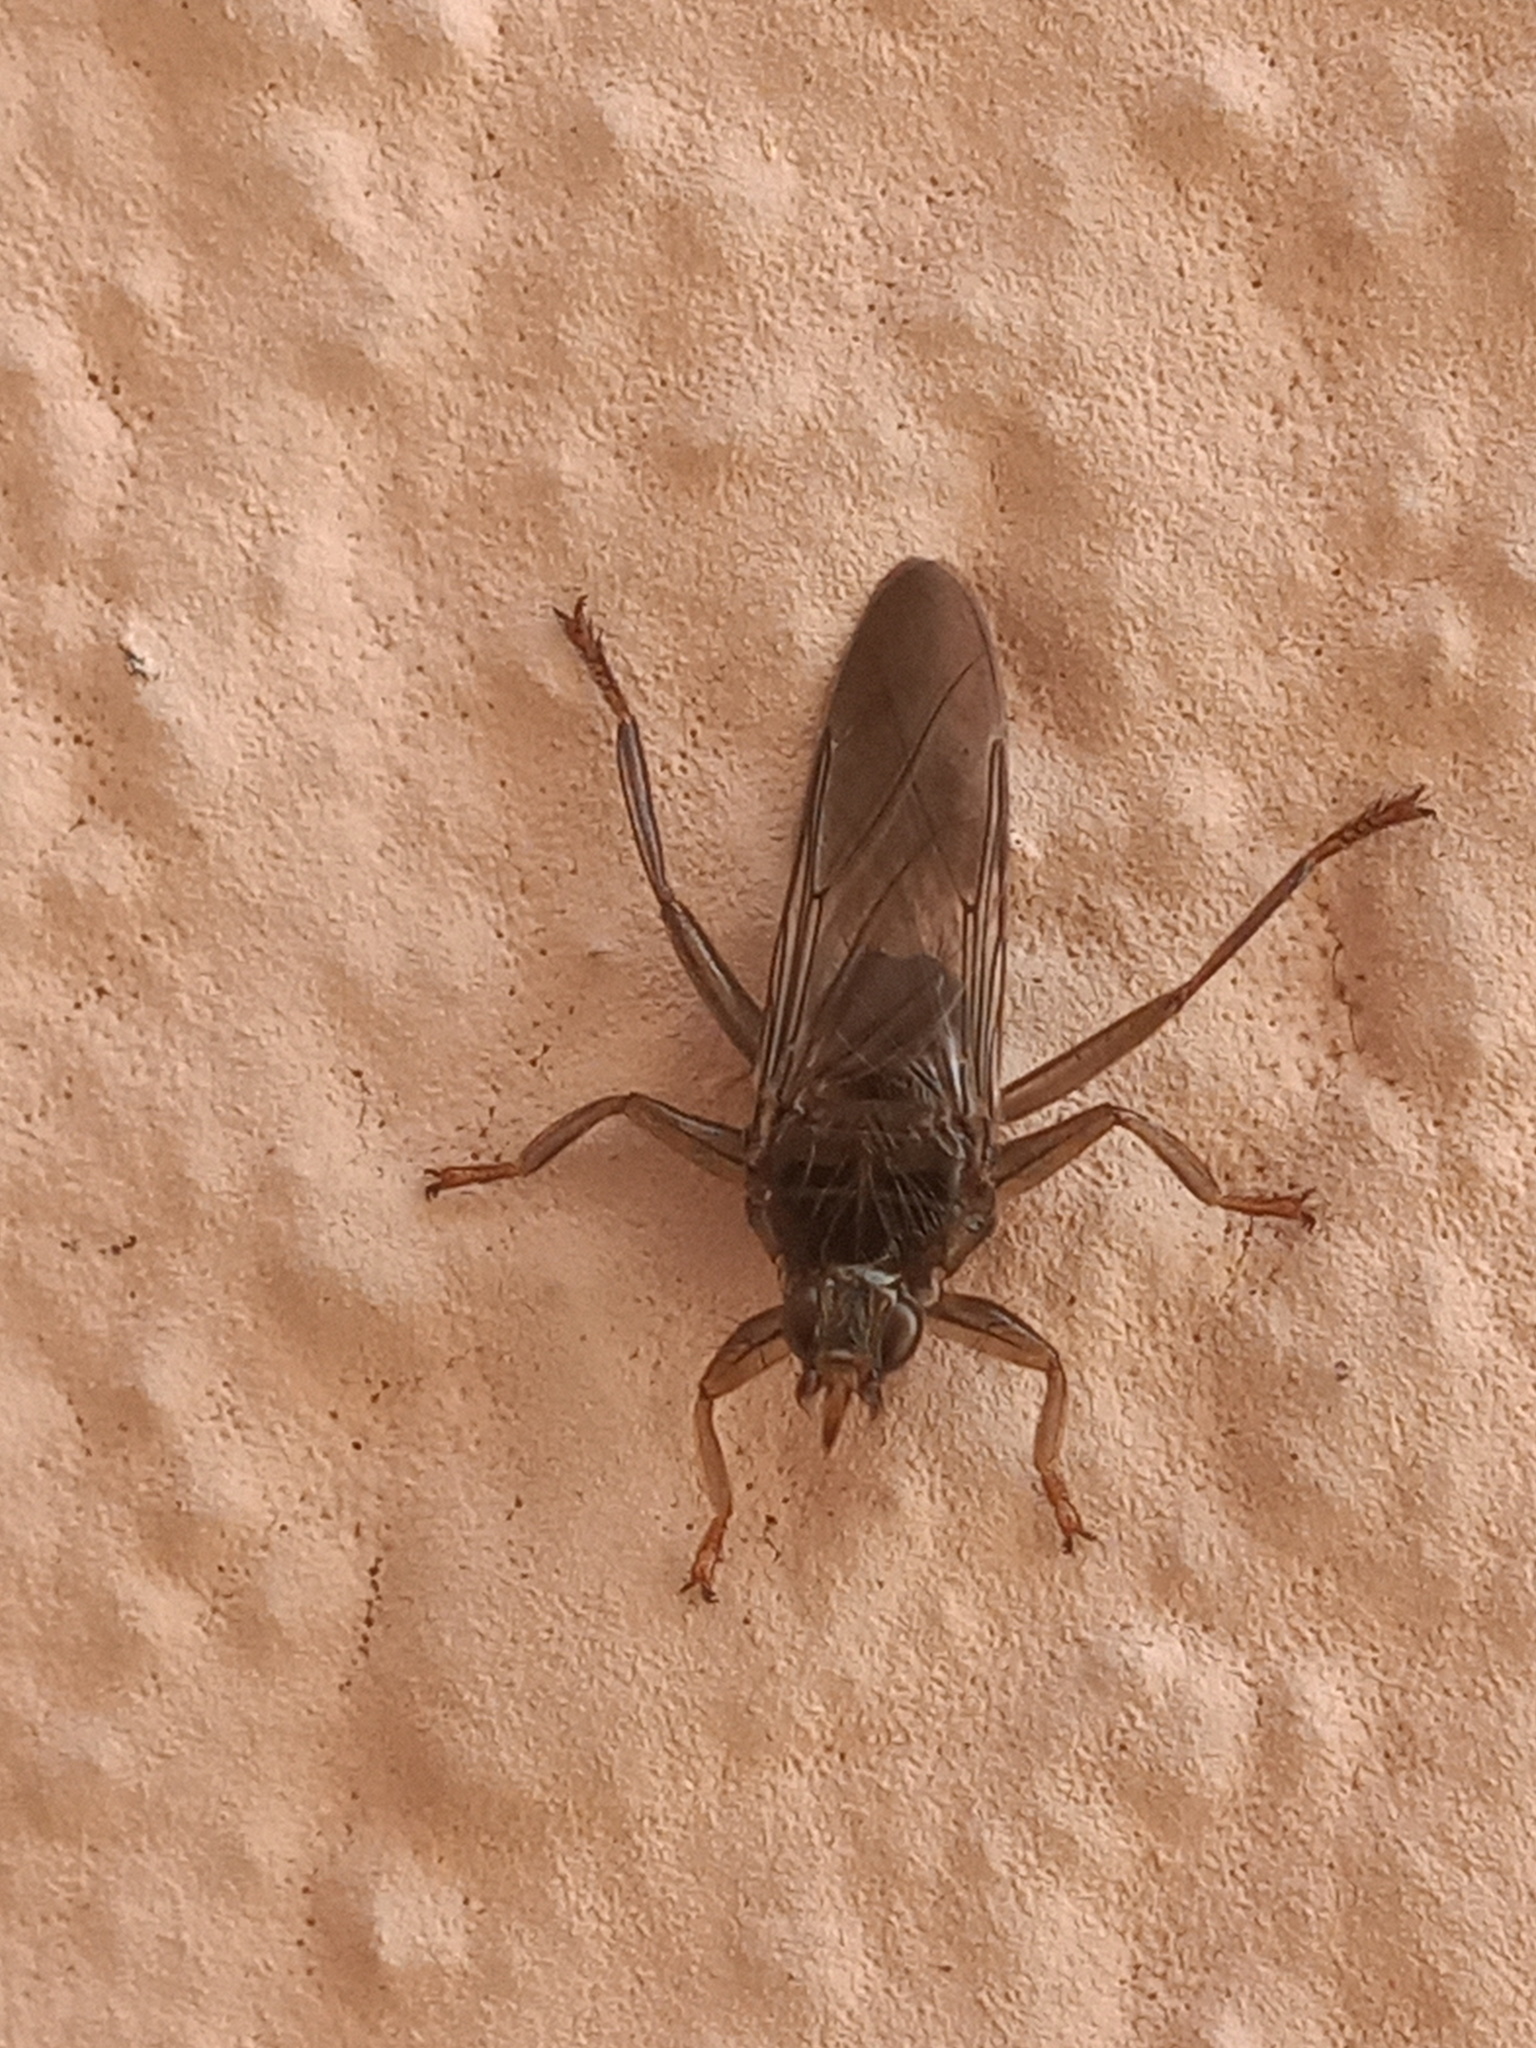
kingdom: Animalia
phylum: Arthropoda
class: Insecta
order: Diptera
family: Hippoboscidae
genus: Pseudolynchia
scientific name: Pseudolynchia canariensis
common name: Louse fly
